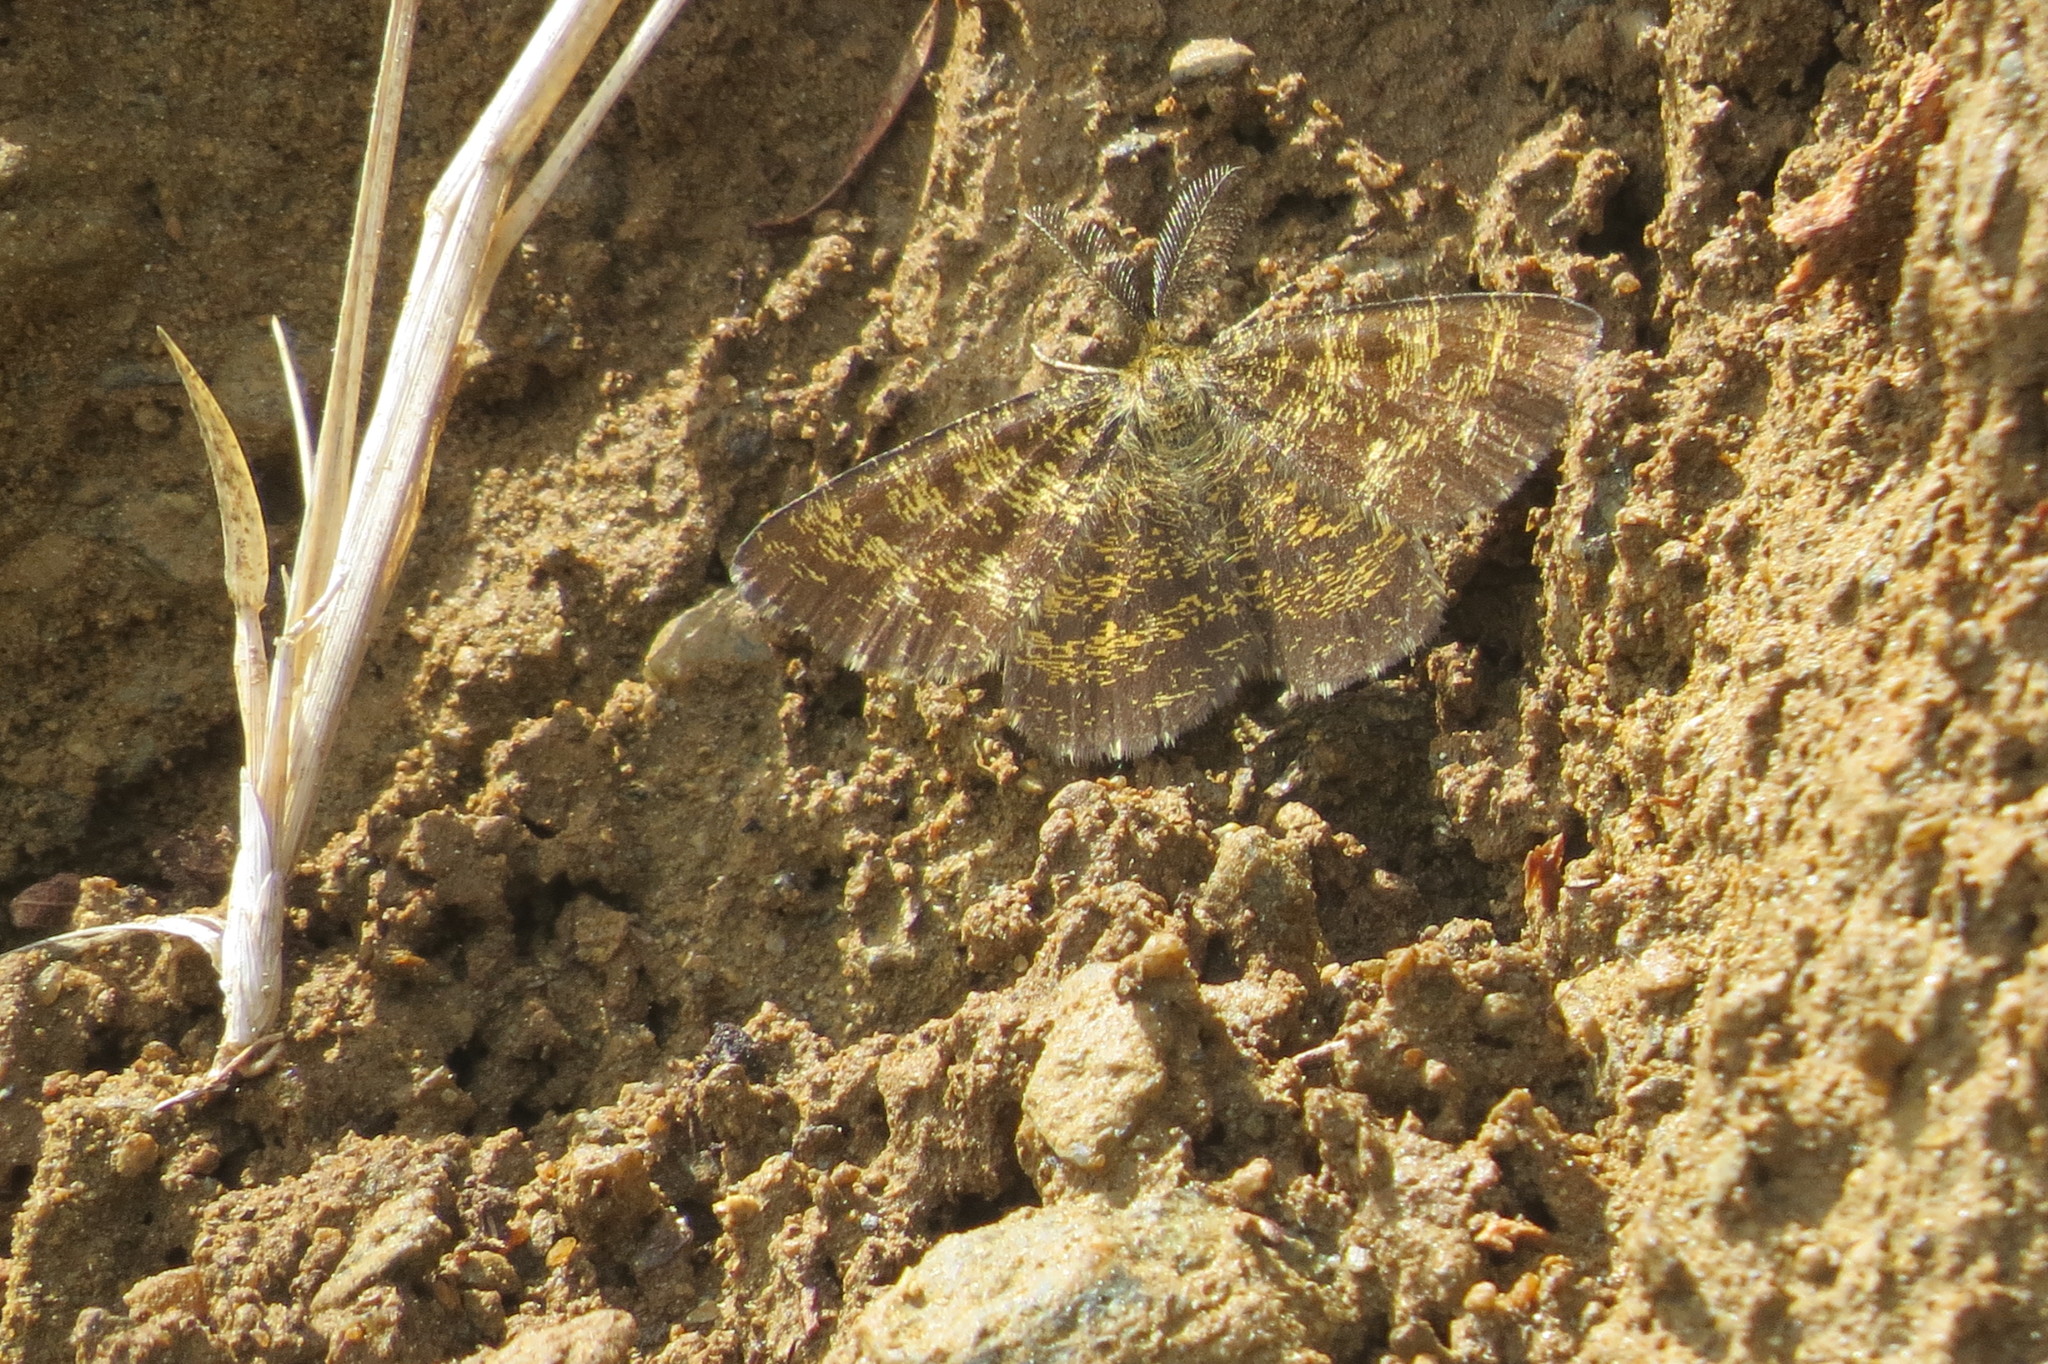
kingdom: Animalia
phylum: Arthropoda
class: Insecta
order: Lepidoptera
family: Geometridae
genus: Ematurga
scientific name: Ematurga atomaria
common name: Common heath
